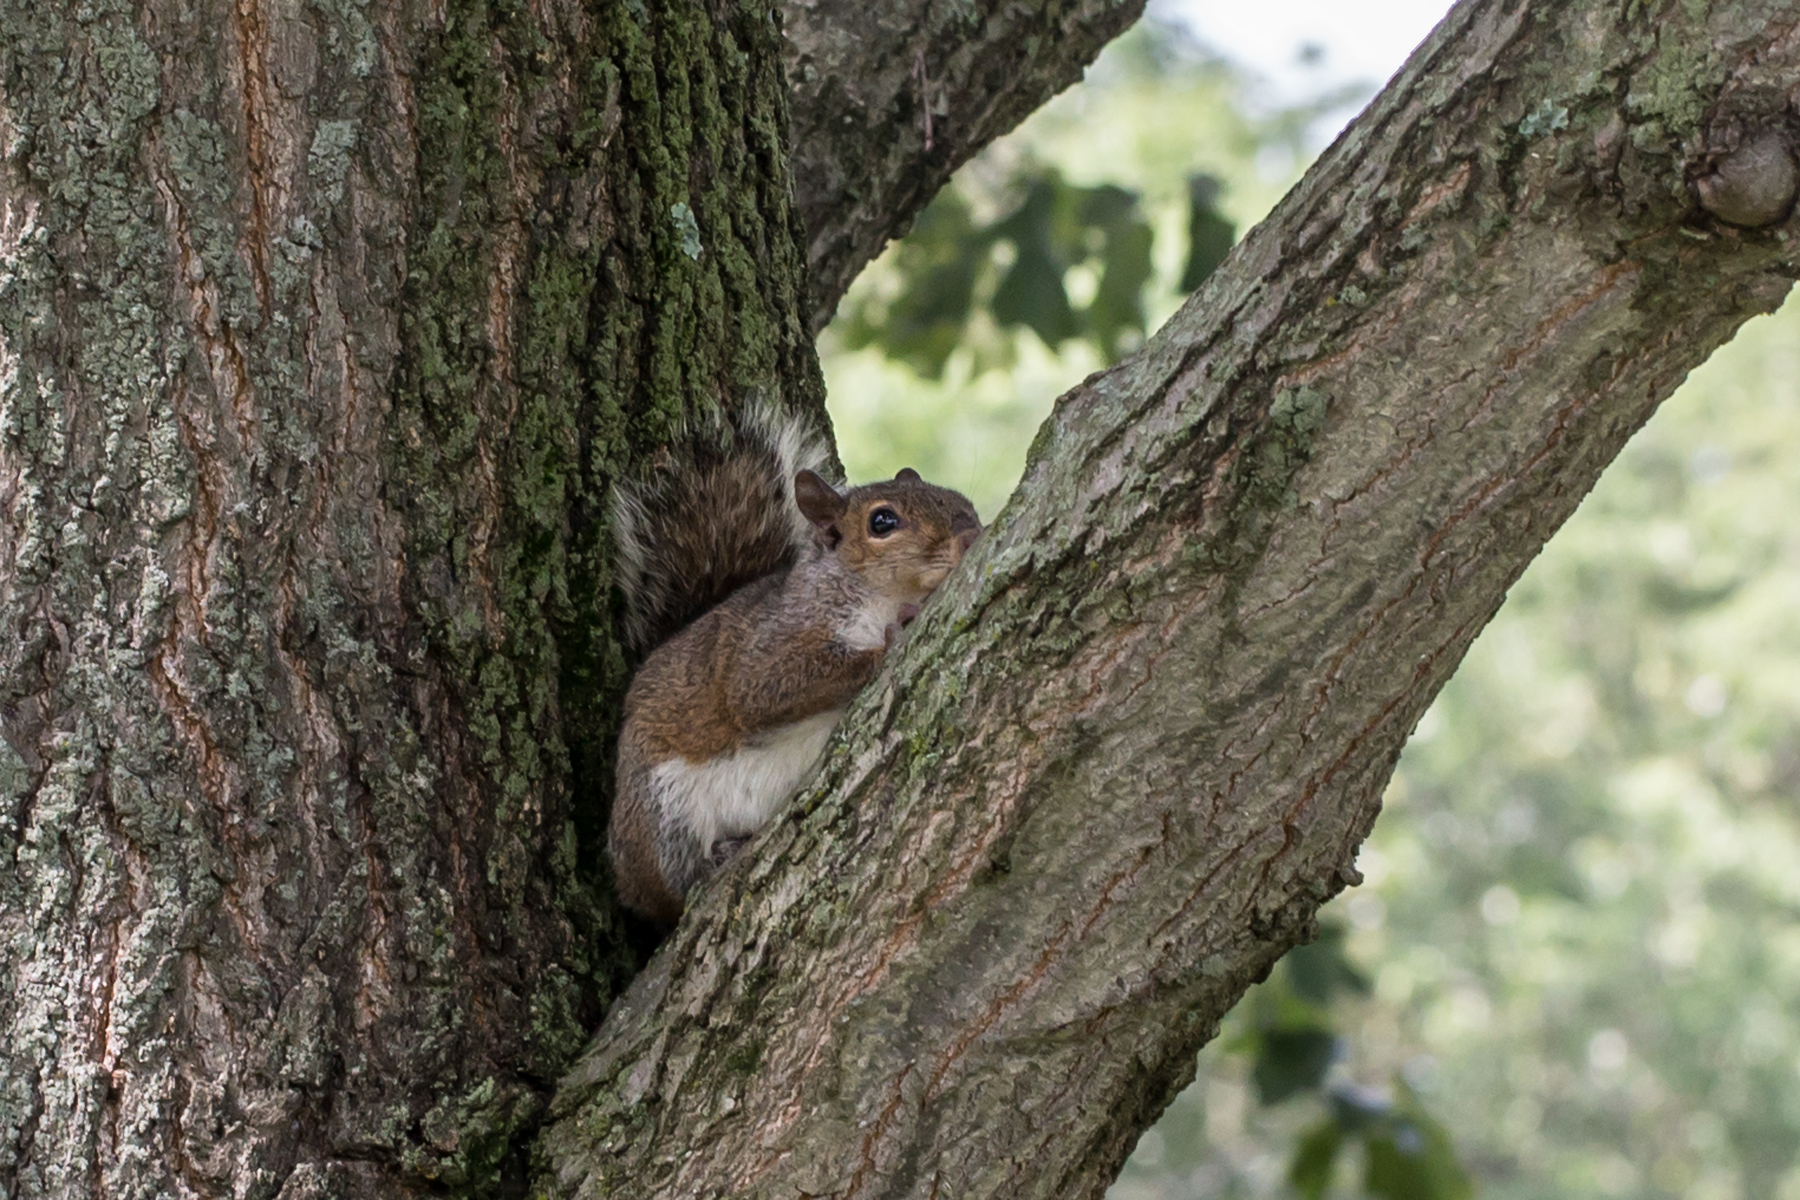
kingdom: Animalia
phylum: Chordata
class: Mammalia
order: Rodentia
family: Sciuridae
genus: Sciurus
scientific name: Sciurus carolinensis
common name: Eastern gray squirrel
